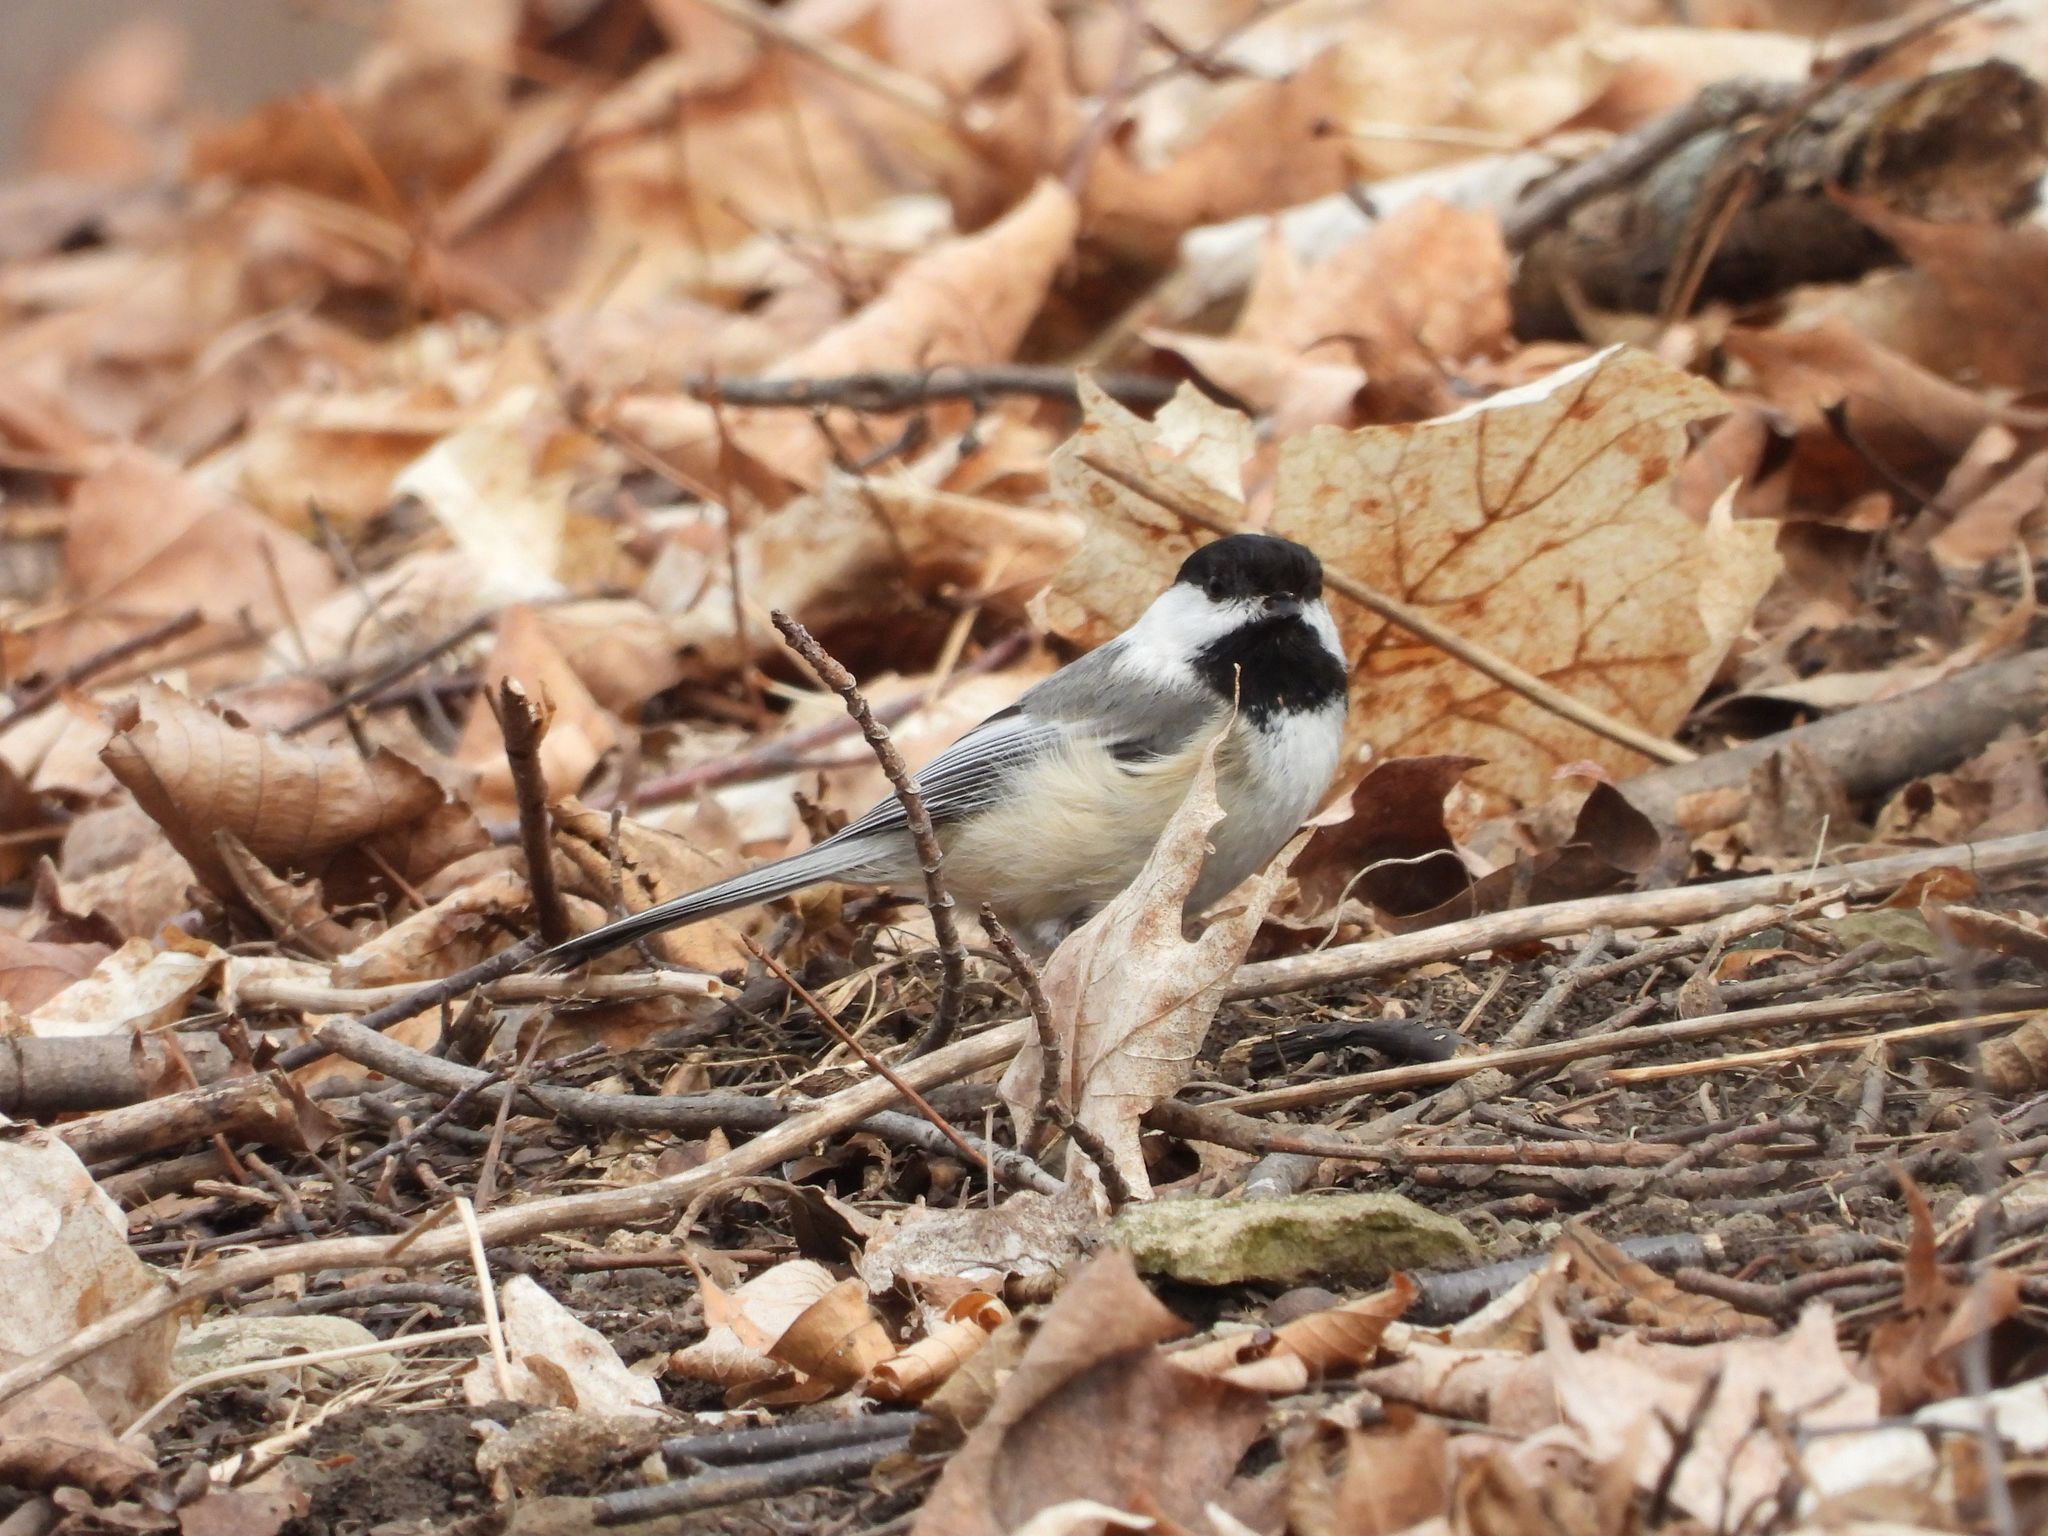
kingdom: Animalia
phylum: Chordata
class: Aves
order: Passeriformes
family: Paridae
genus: Poecile
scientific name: Poecile atricapillus
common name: Black-capped chickadee
